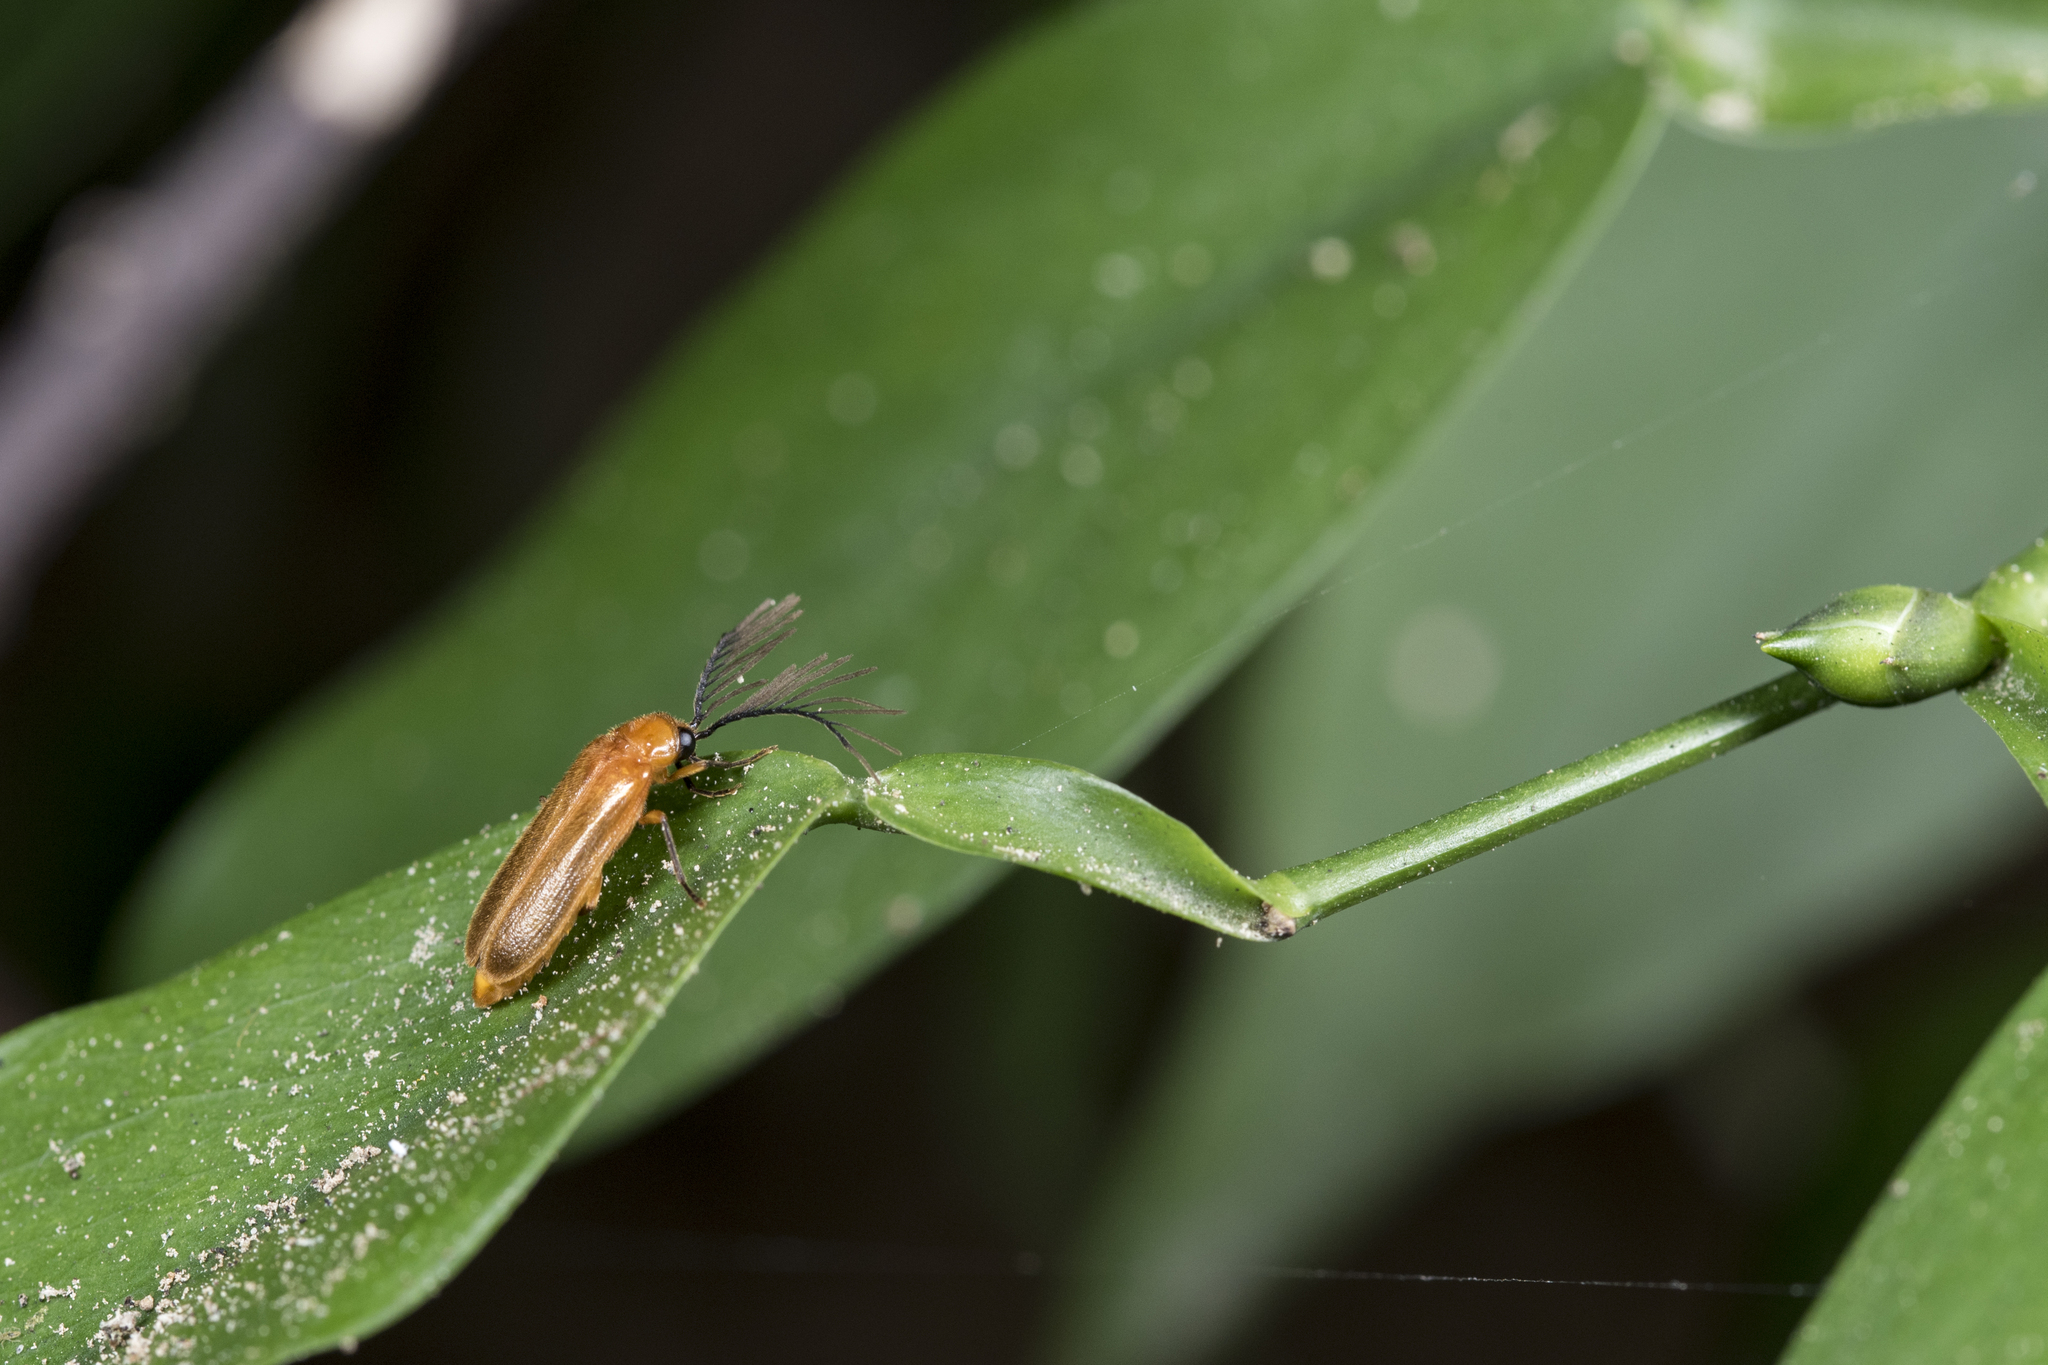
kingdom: Animalia
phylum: Arthropoda
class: Insecta
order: Coleoptera
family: Lampyridae
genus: Stenocladius
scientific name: Stenocladius bicoloripes
